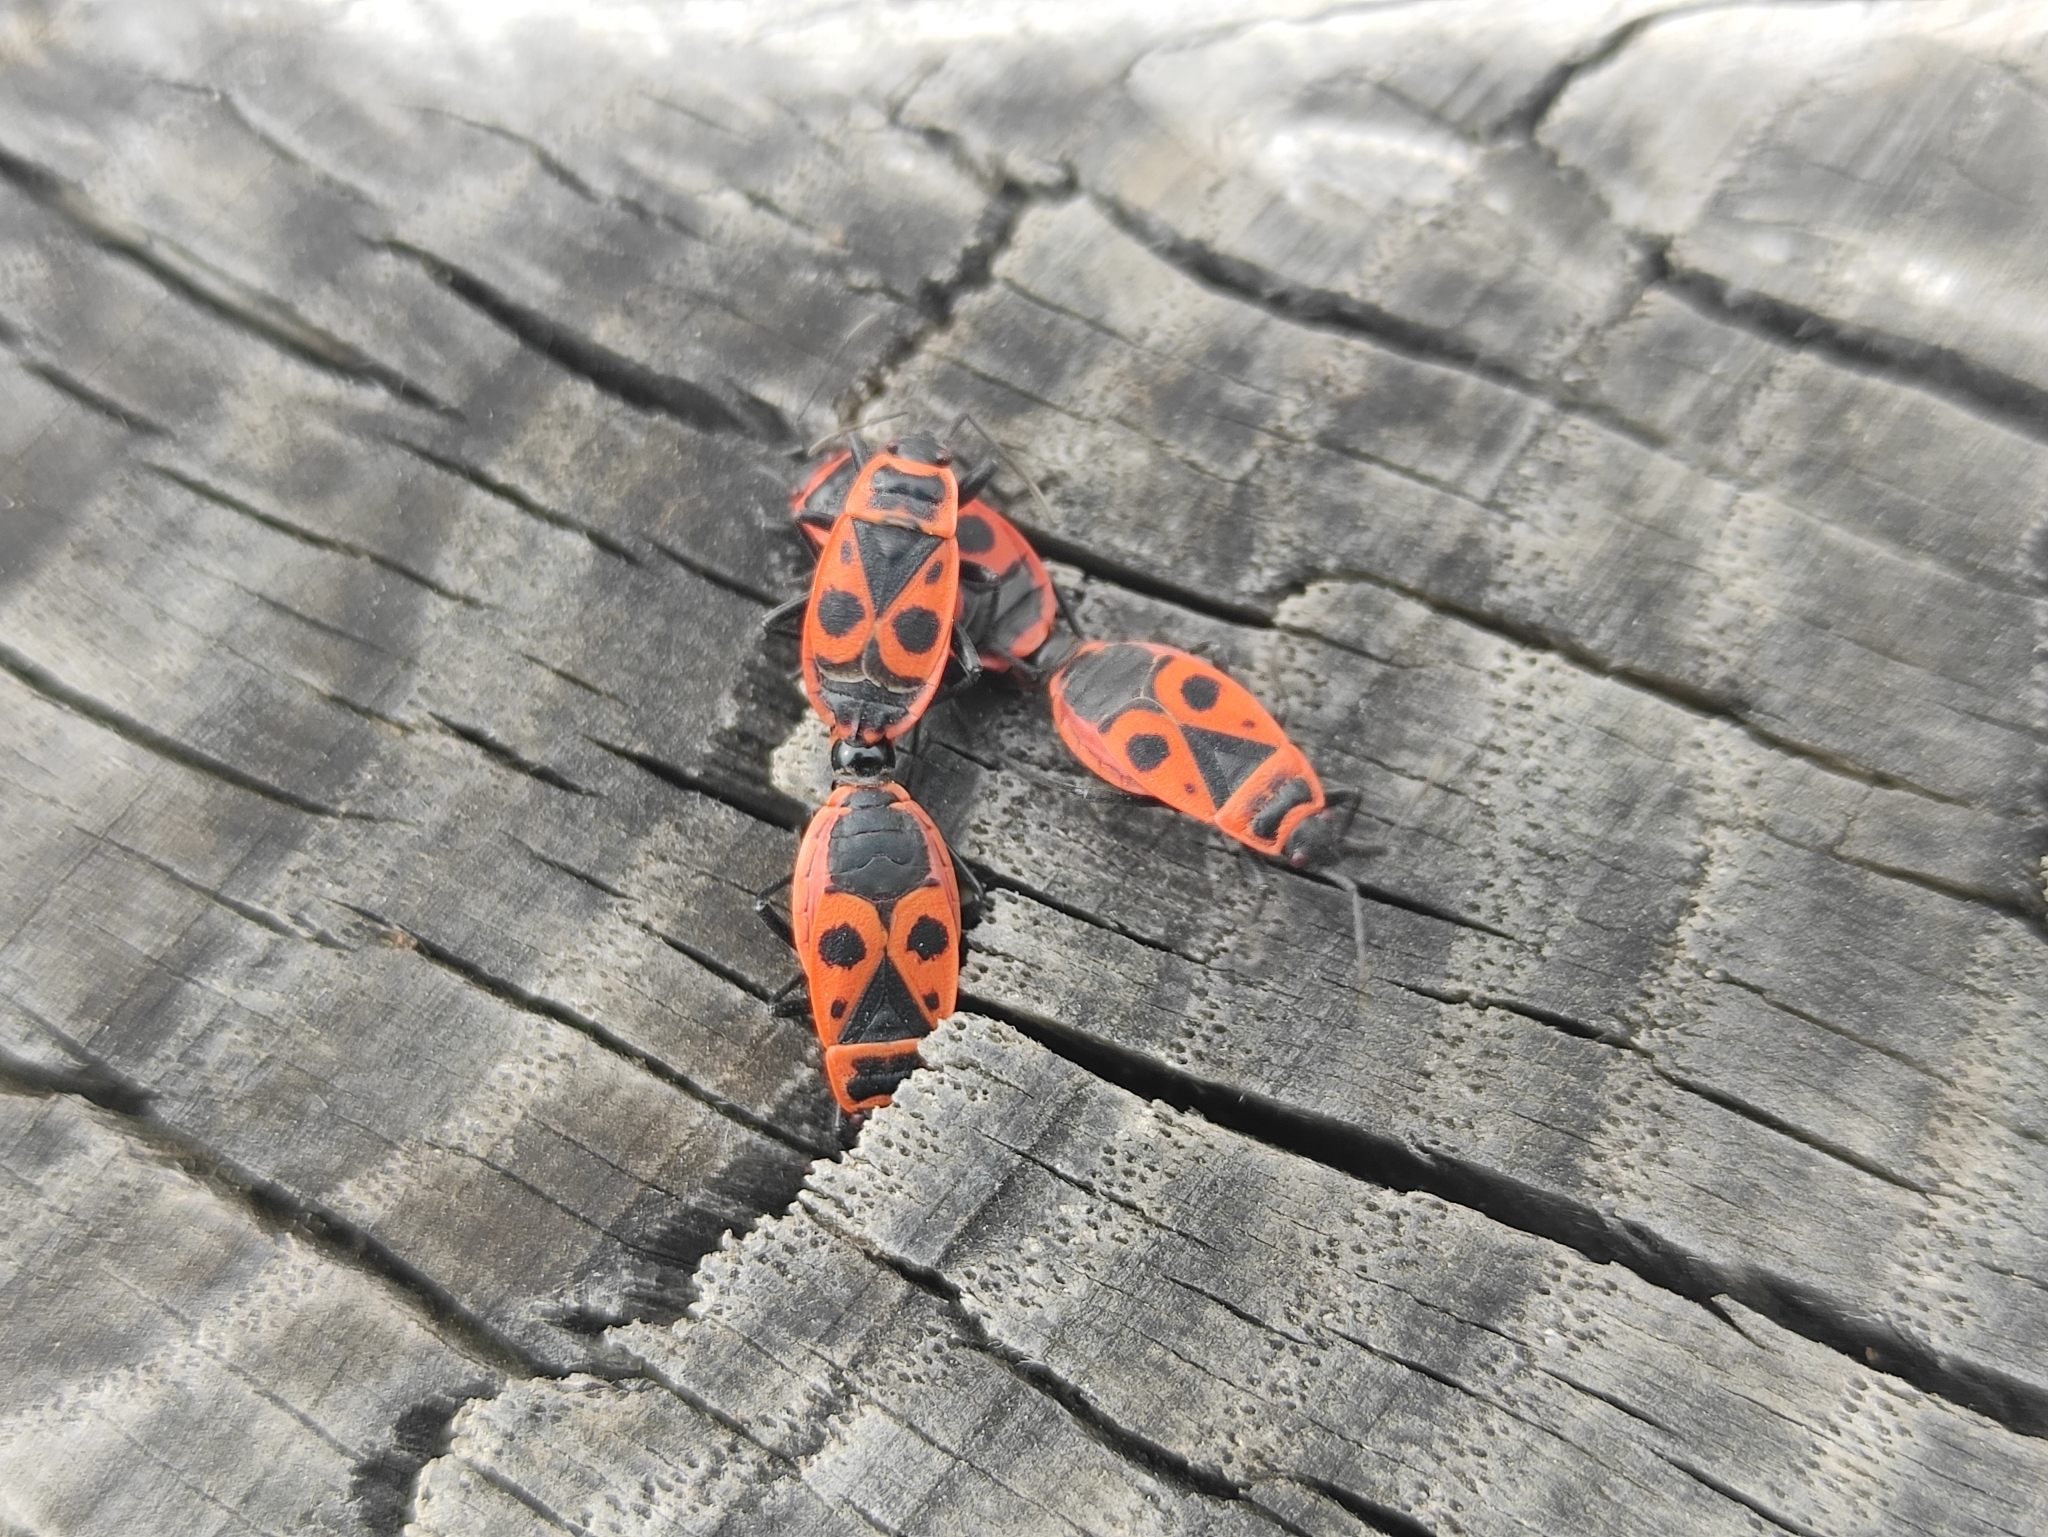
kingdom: Animalia
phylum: Arthropoda
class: Insecta
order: Hemiptera
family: Pyrrhocoridae
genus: Pyrrhocoris
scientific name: Pyrrhocoris apterus
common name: Firebug
